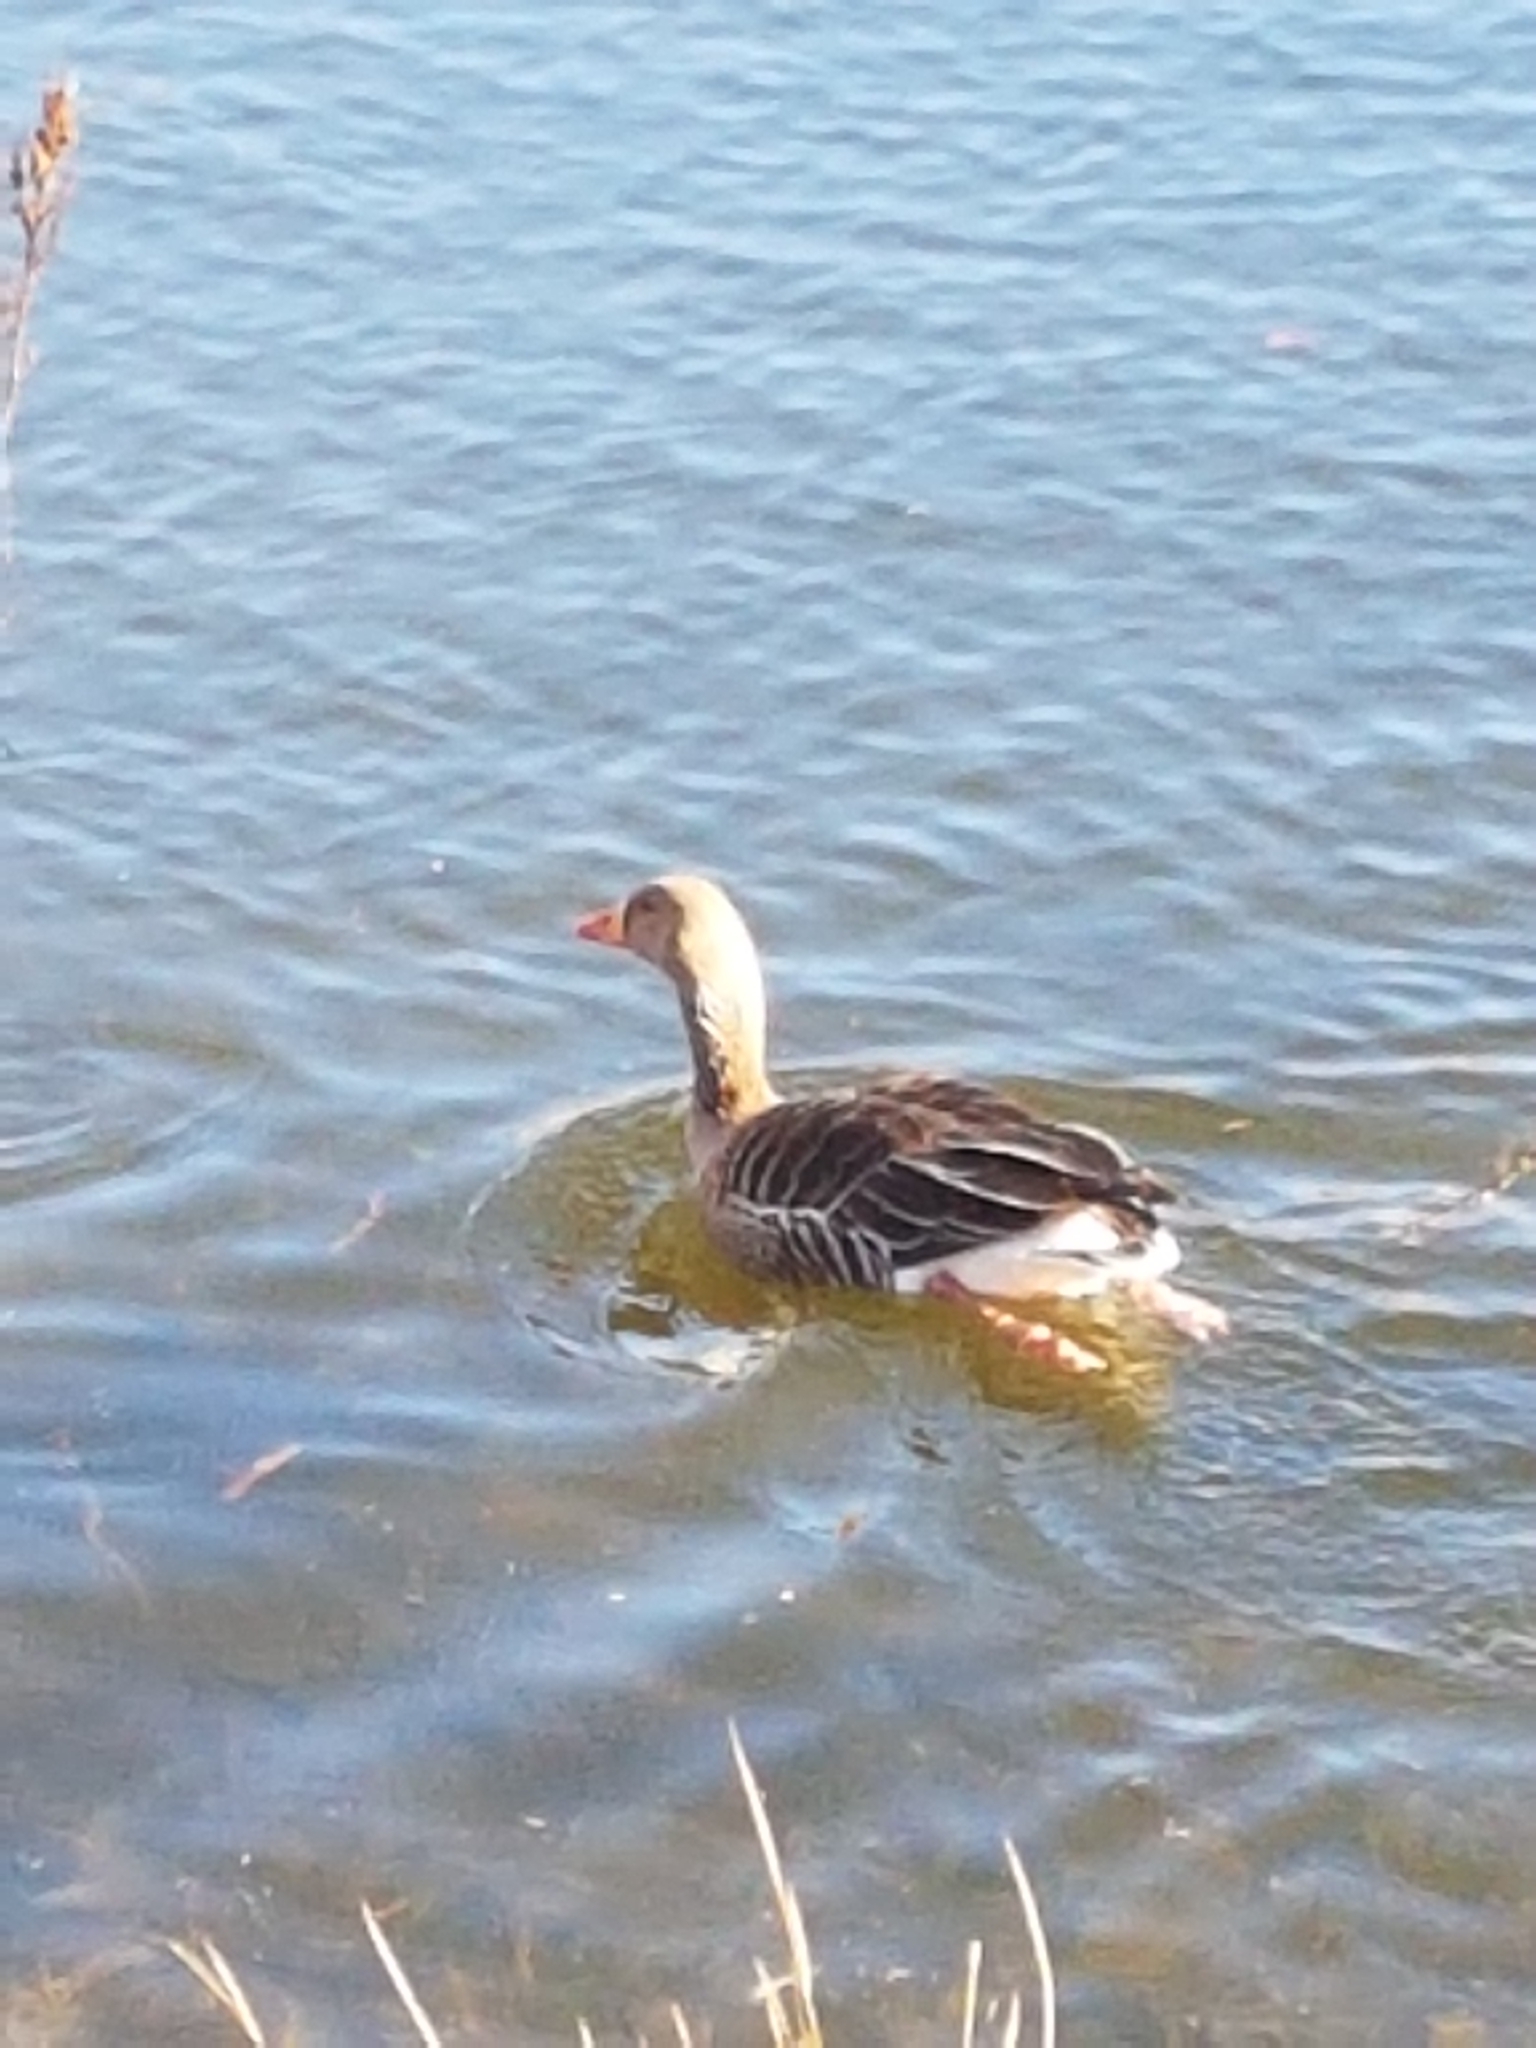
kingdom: Animalia
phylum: Chordata
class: Aves
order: Anseriformes
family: Anatidae
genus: Anser
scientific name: Anser anser
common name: Greylag goose
